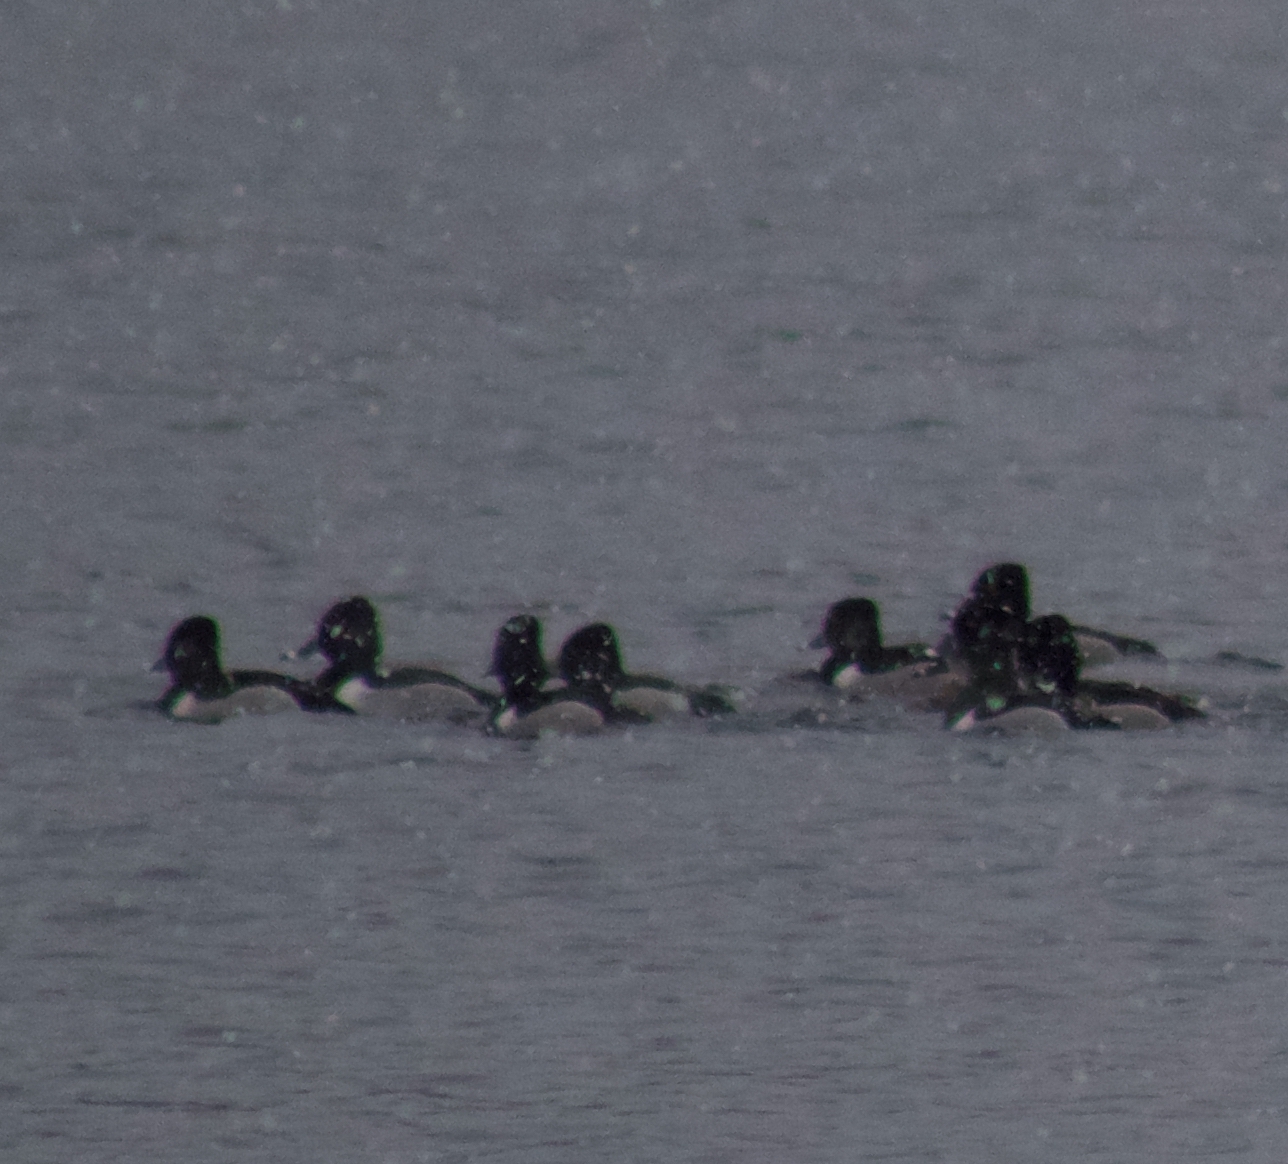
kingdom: Animalia
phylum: Chordata
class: Aves
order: Anseriformes
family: Anatidae
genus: Aythya
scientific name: Aythya collaris
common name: Ring-necked duck
